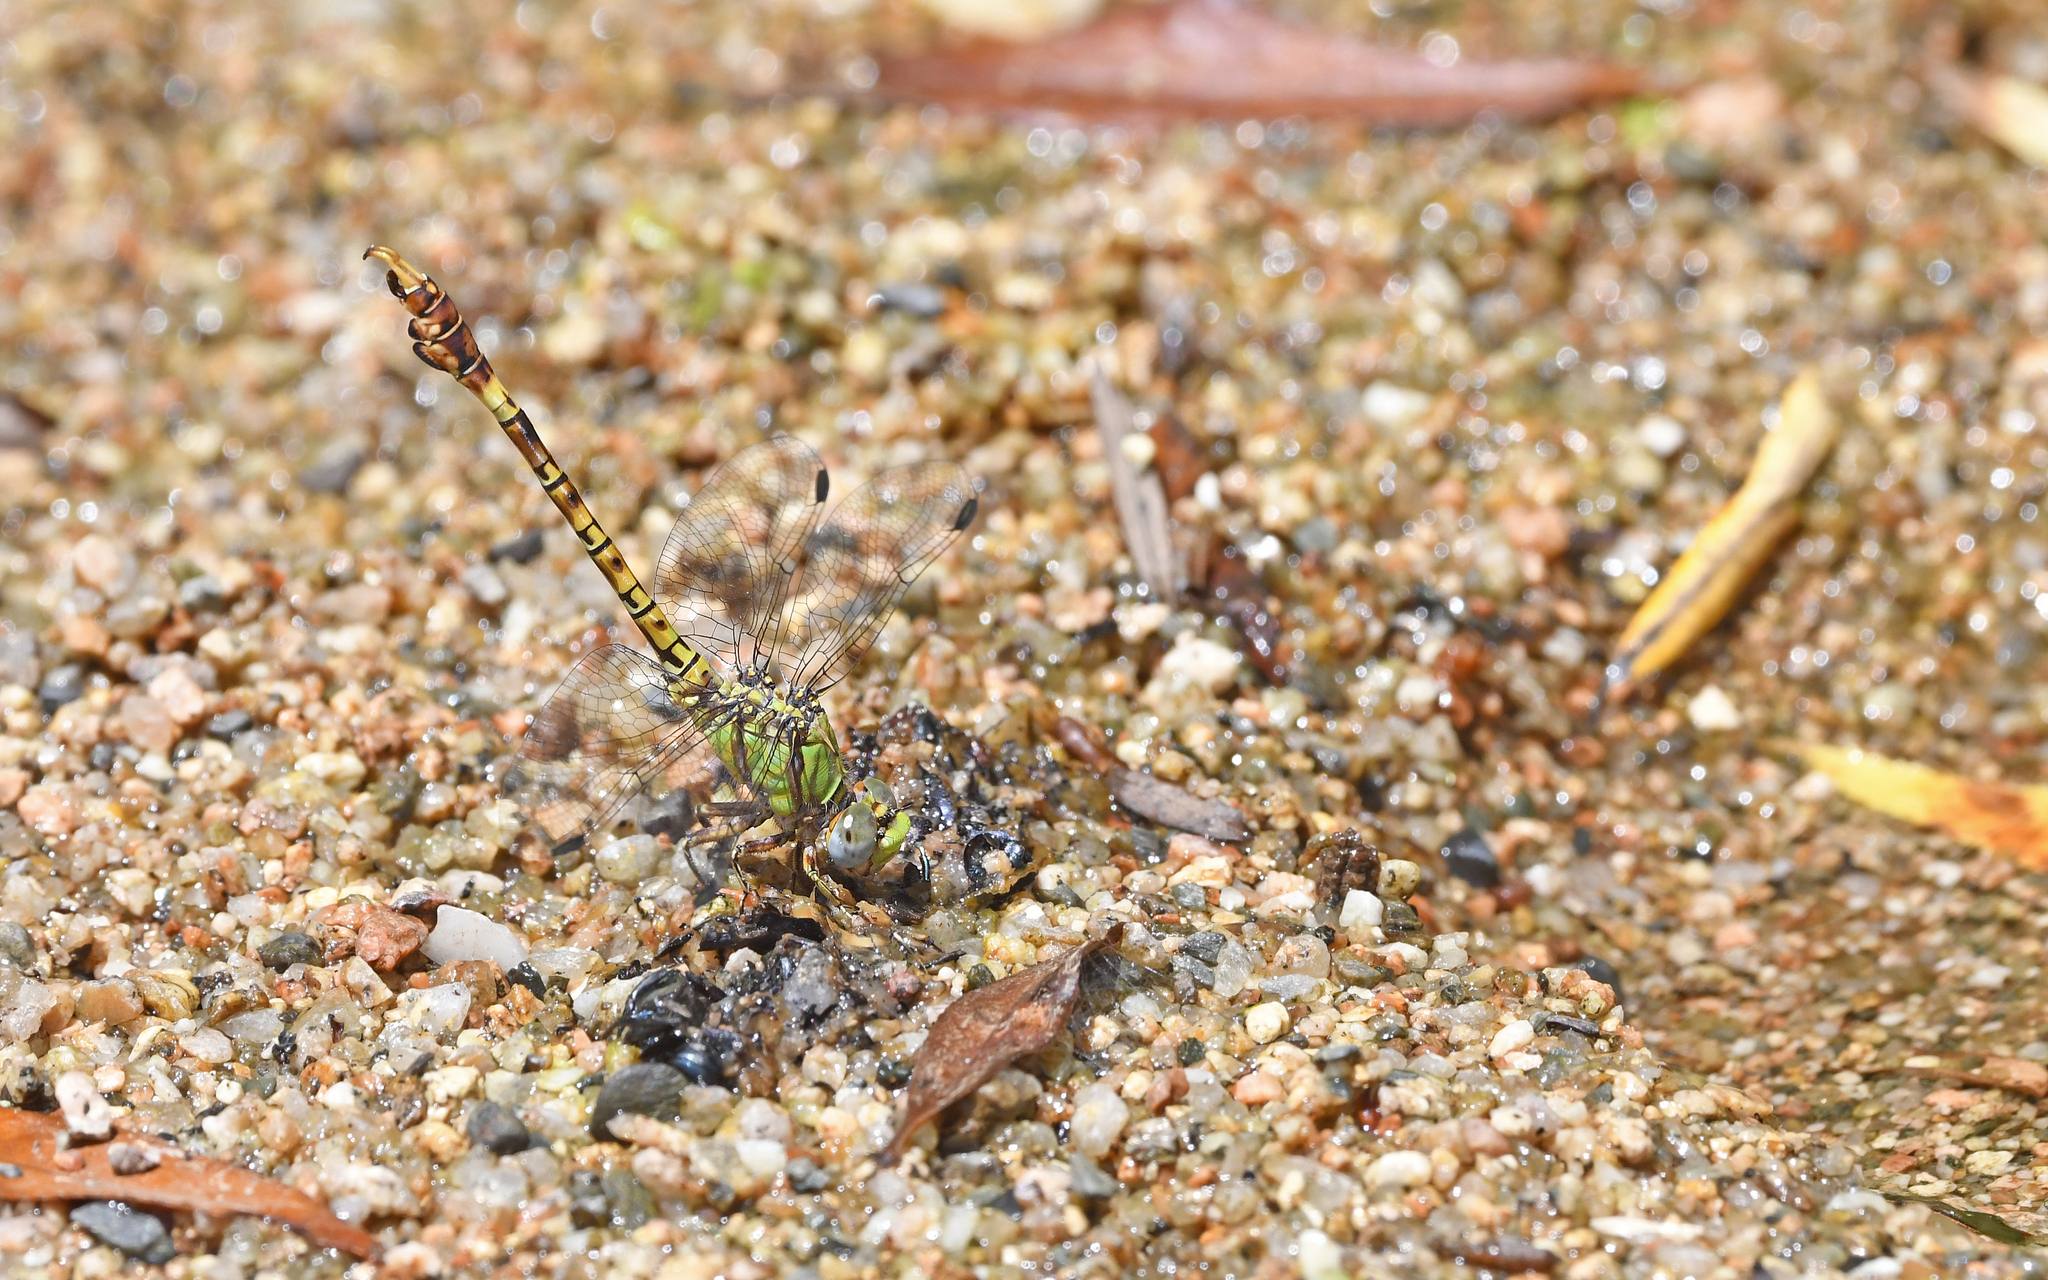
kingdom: Animalia
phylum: Arthropoda
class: Insecta
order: Odonata
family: Gomphidae
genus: Paragomphus
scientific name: Paragomphus genei
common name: Common hooktail
